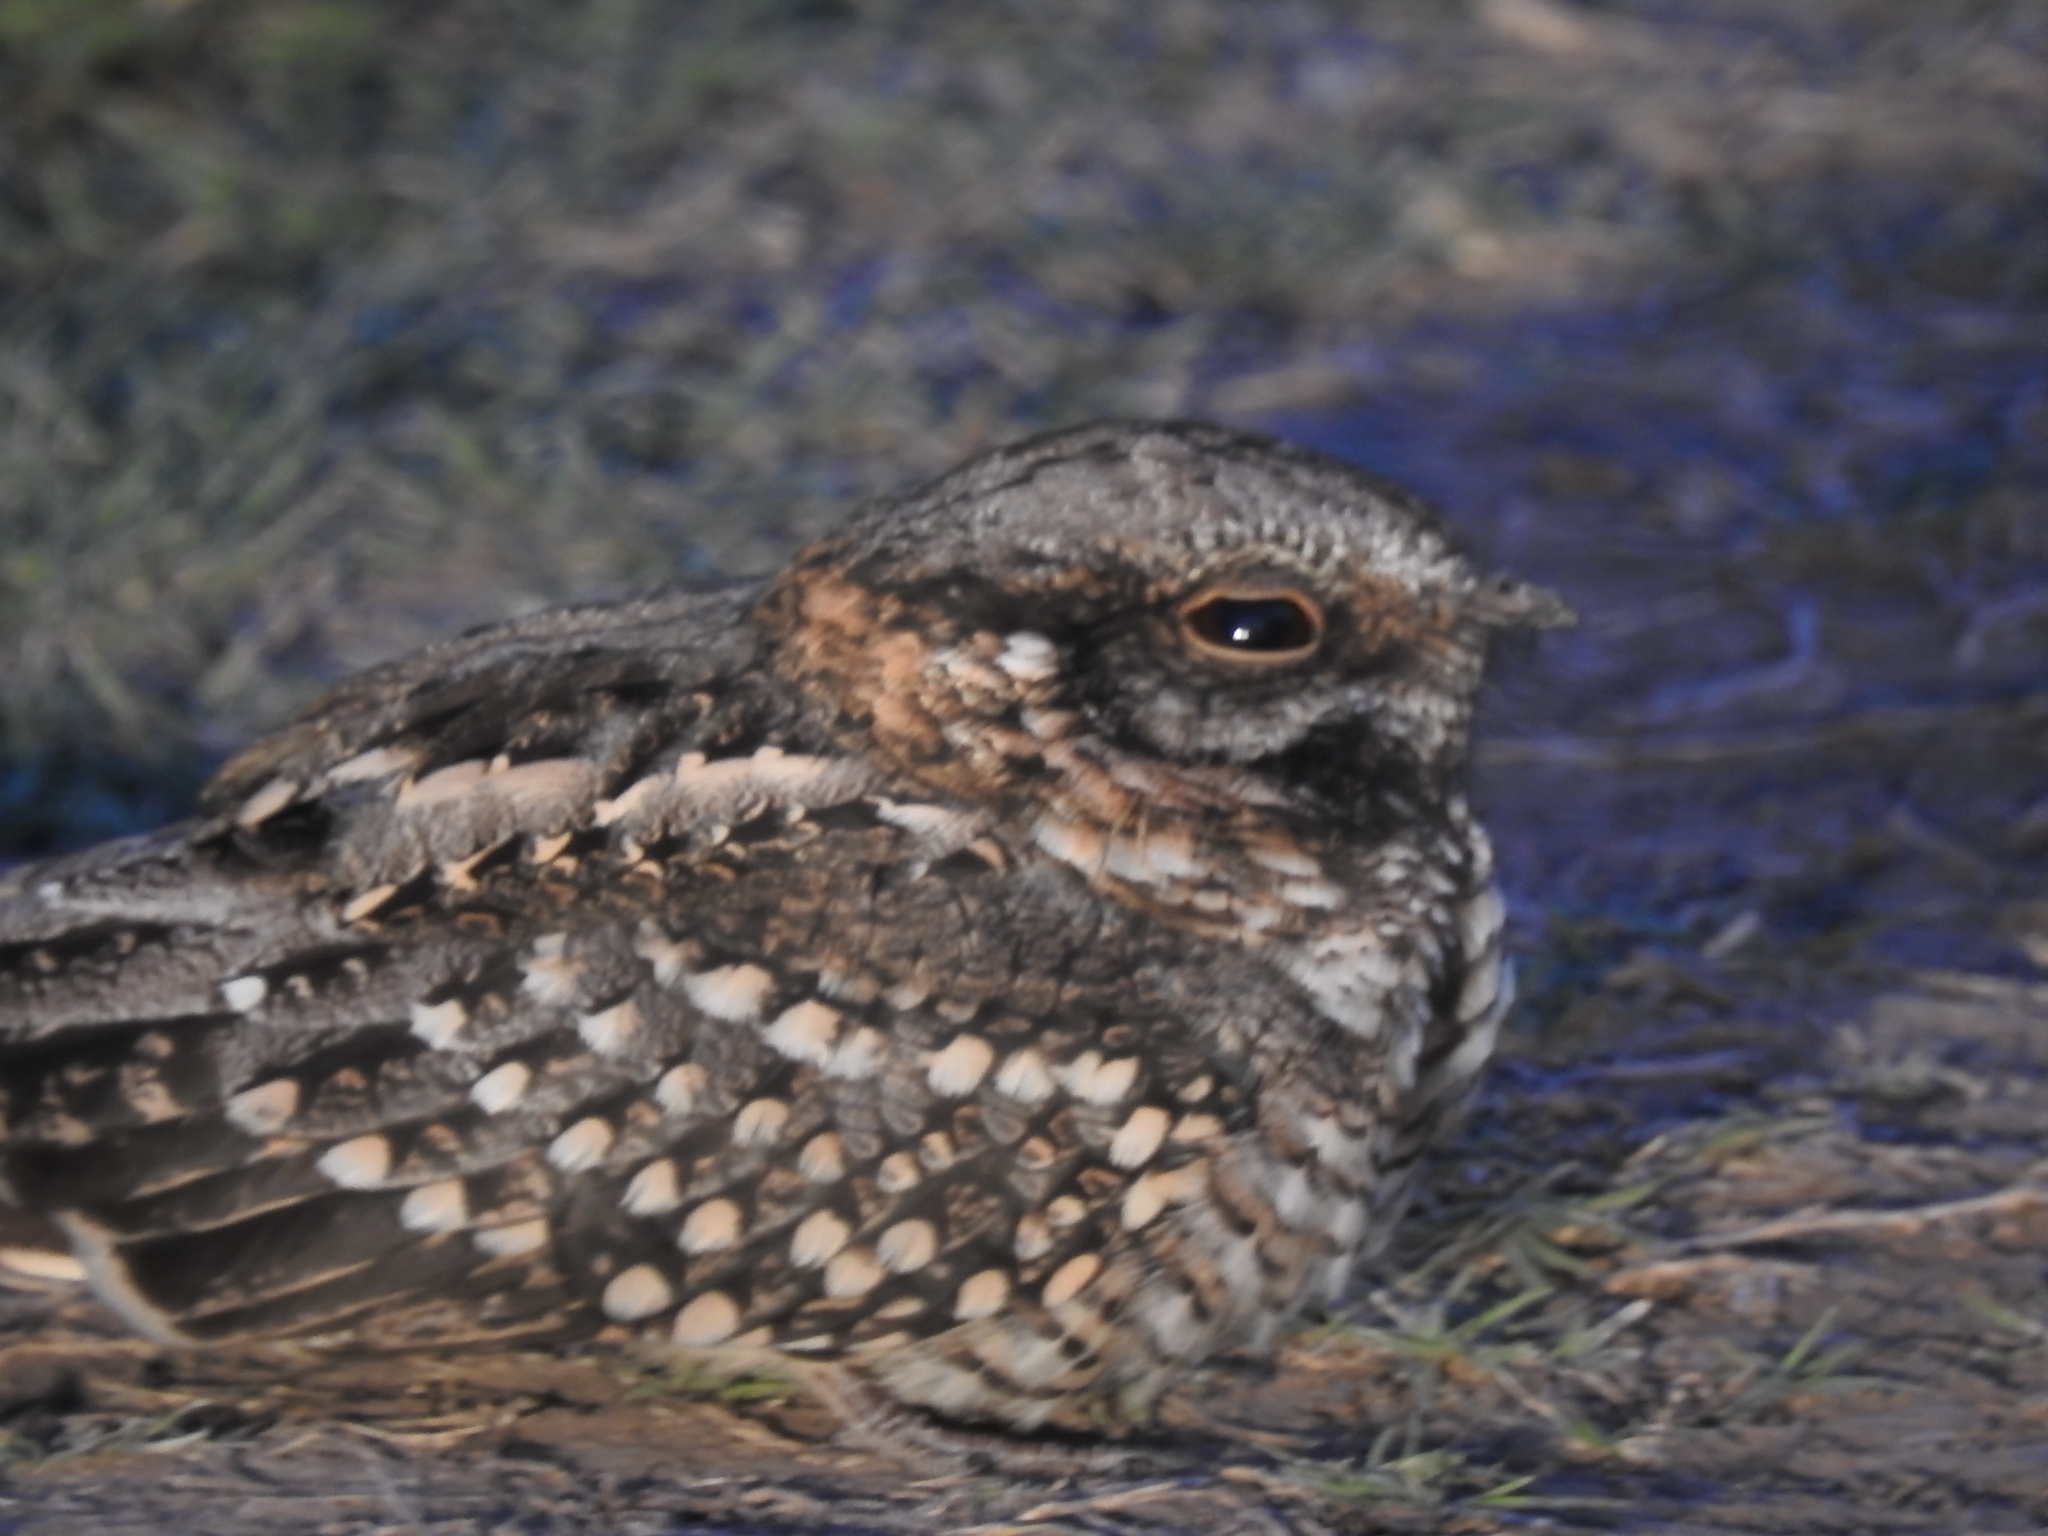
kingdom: Animalia
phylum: Chordata
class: Aves
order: Caprimulgiformes
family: Caprimulgidae
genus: Hydropsalis
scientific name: Hydropsalis torquata
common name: Scissor-tailed nightjar
